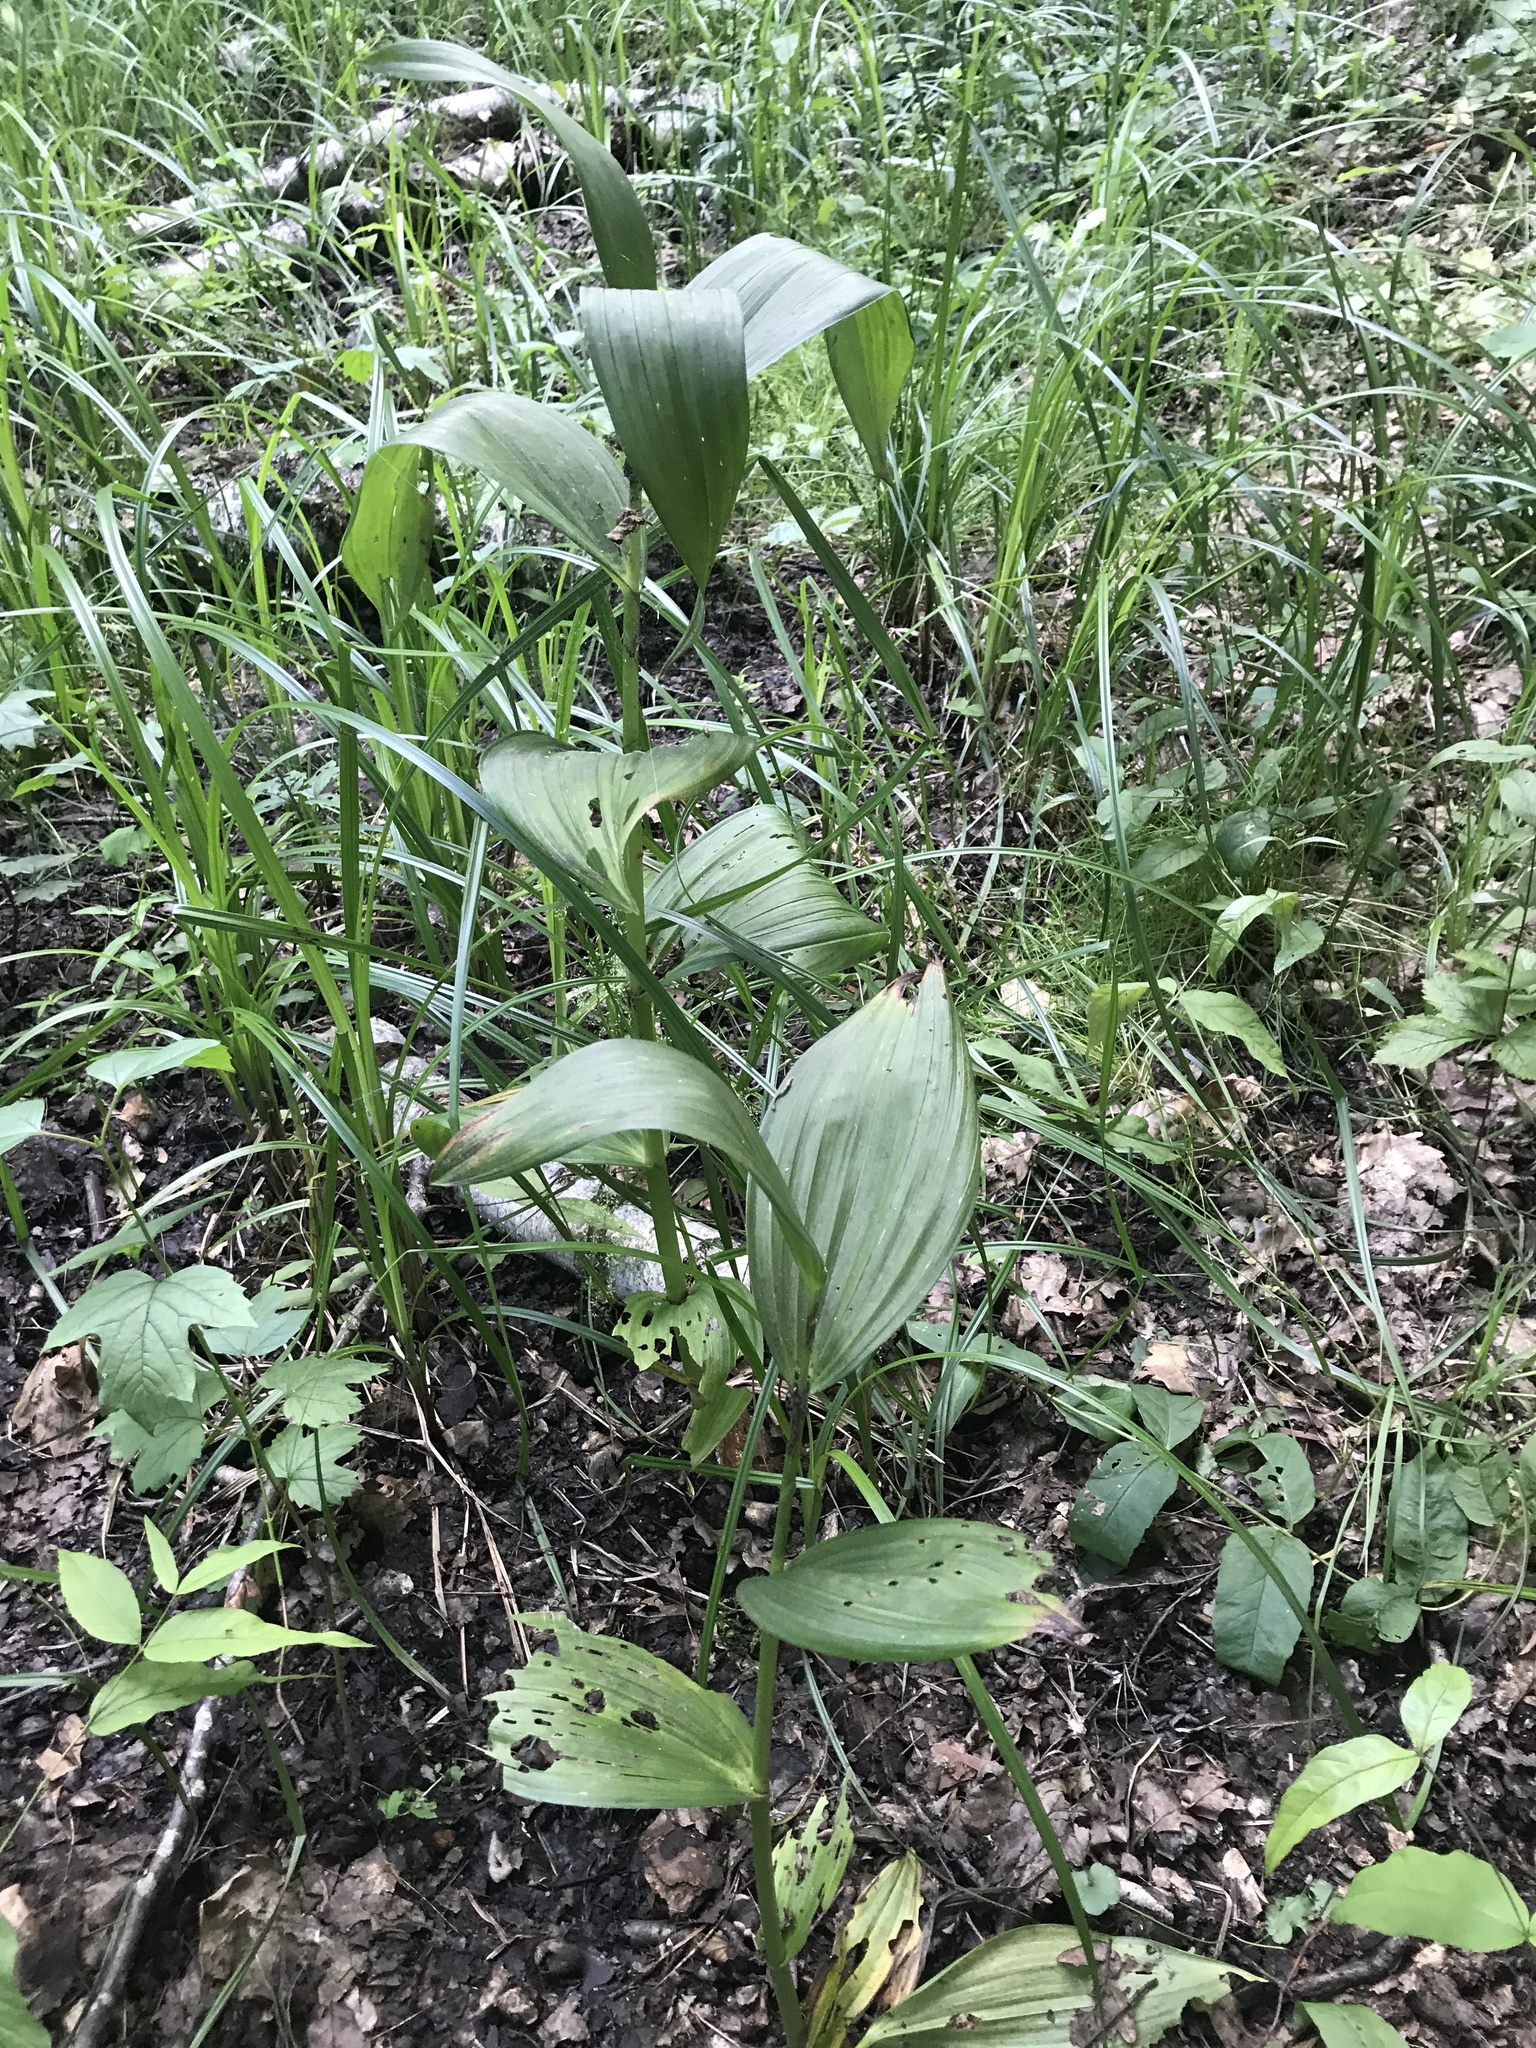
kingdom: Plantae
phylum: Tracheophyta
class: Liliopsida
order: Liliales
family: Melanthiaceae
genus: Veratrum
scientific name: Veratrum lobelianum
